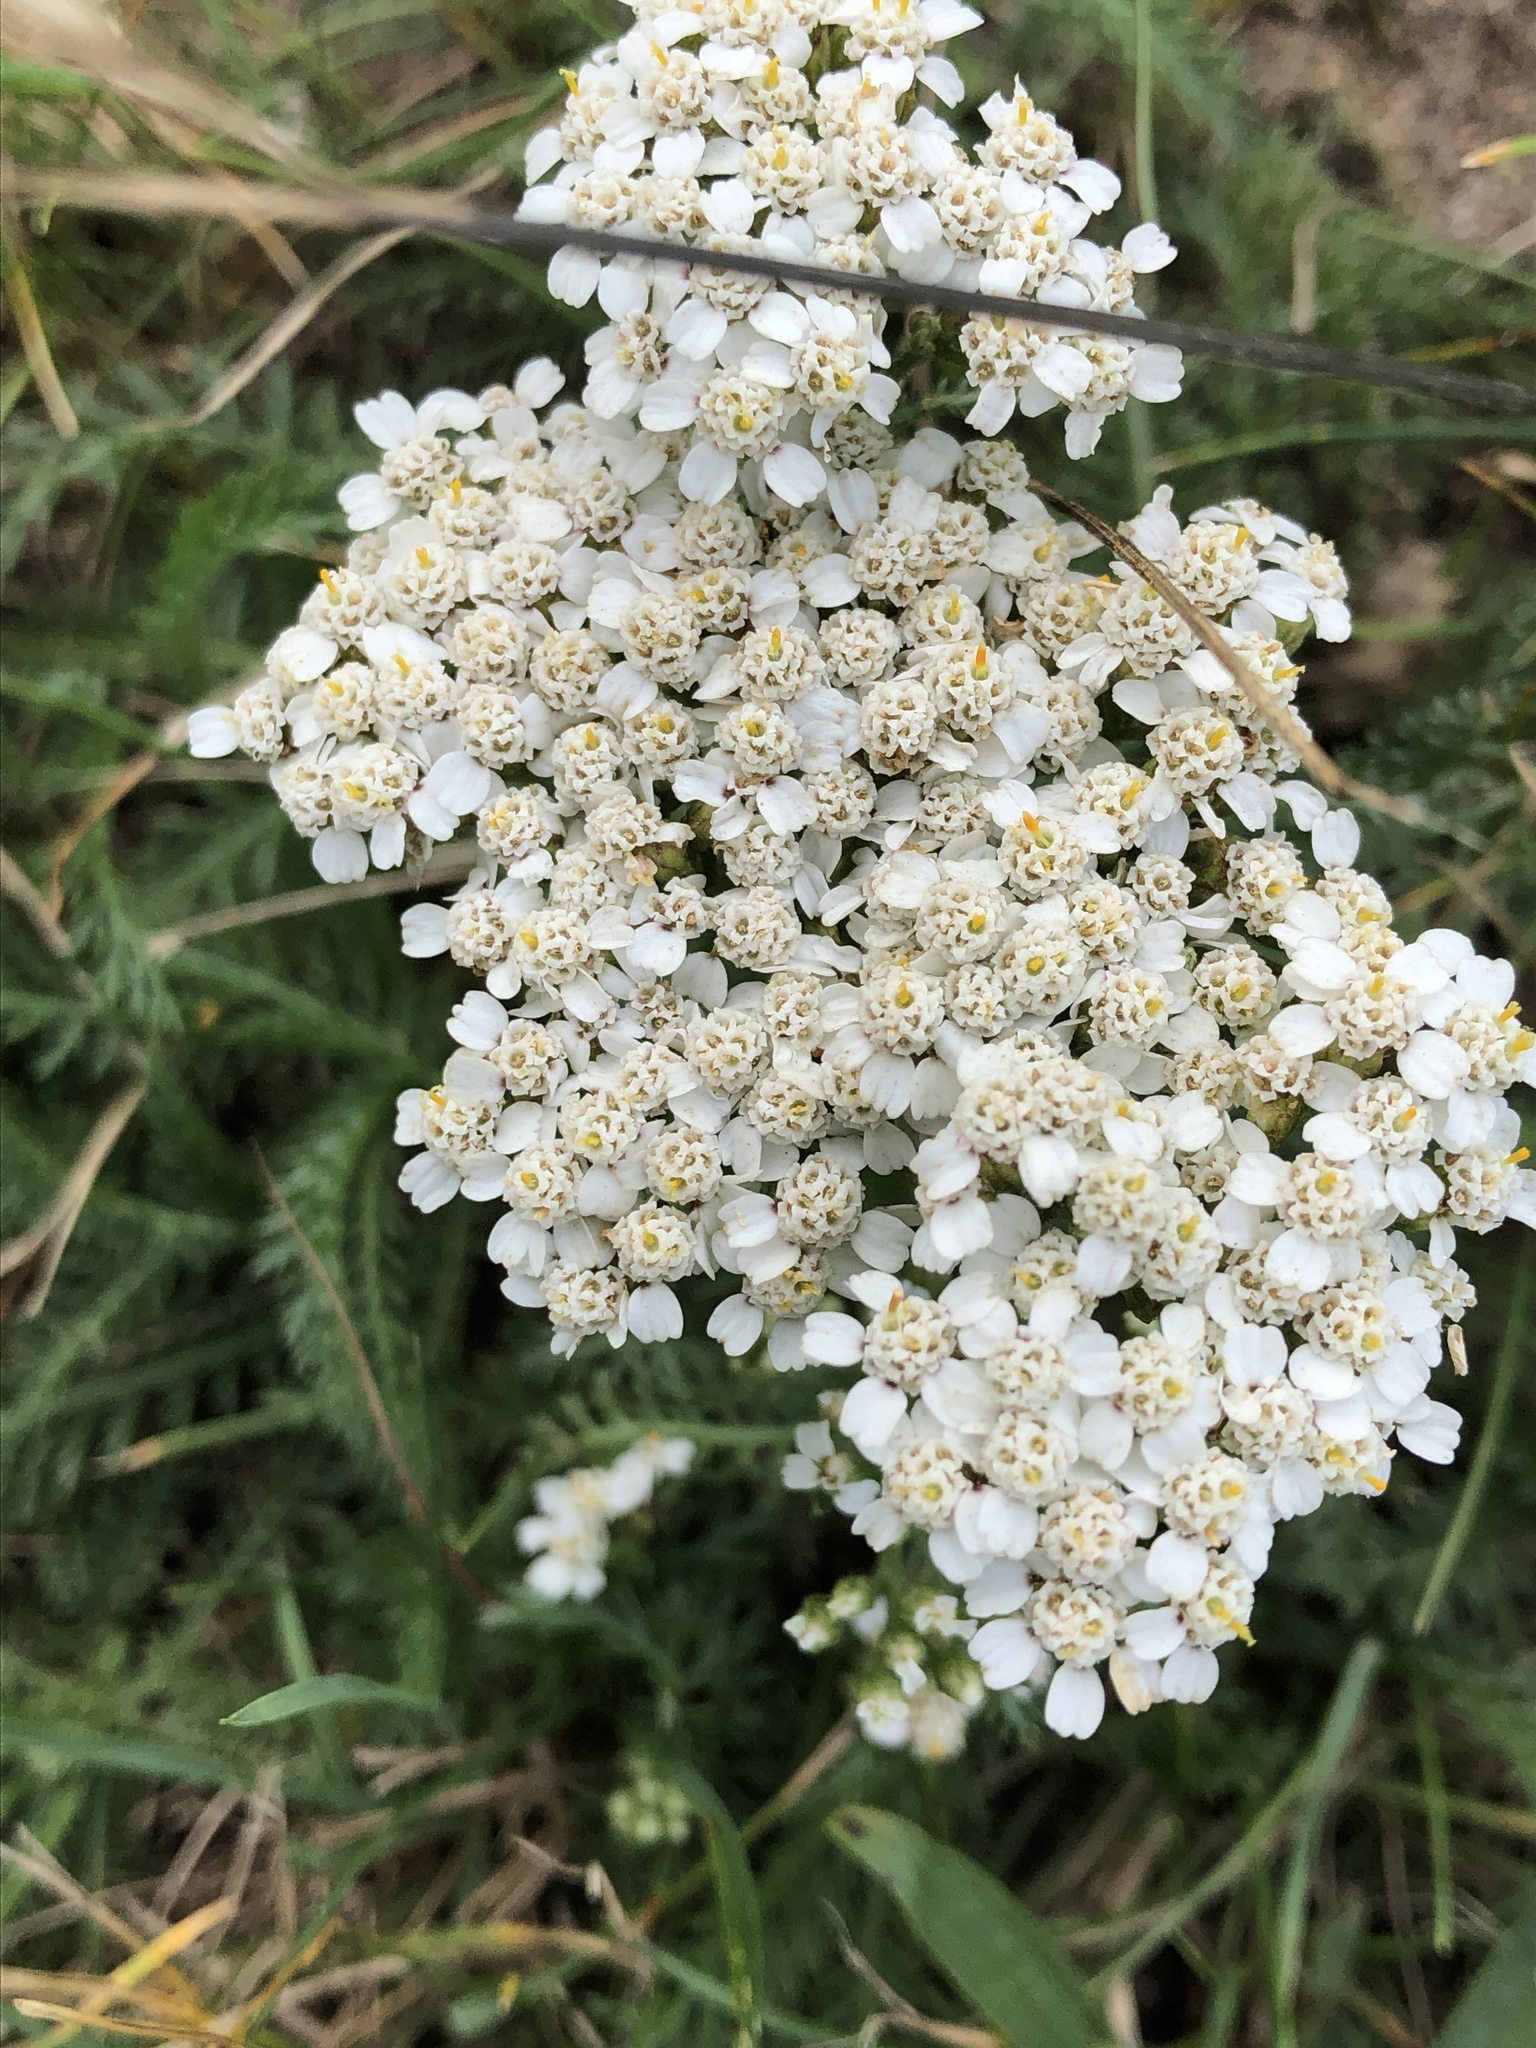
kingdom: Plantae
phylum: Tracheophyta
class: Magnoliopsida
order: Asterales
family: Asteraceae
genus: Achillea
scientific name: Achillea millefolium
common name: Yarrow
